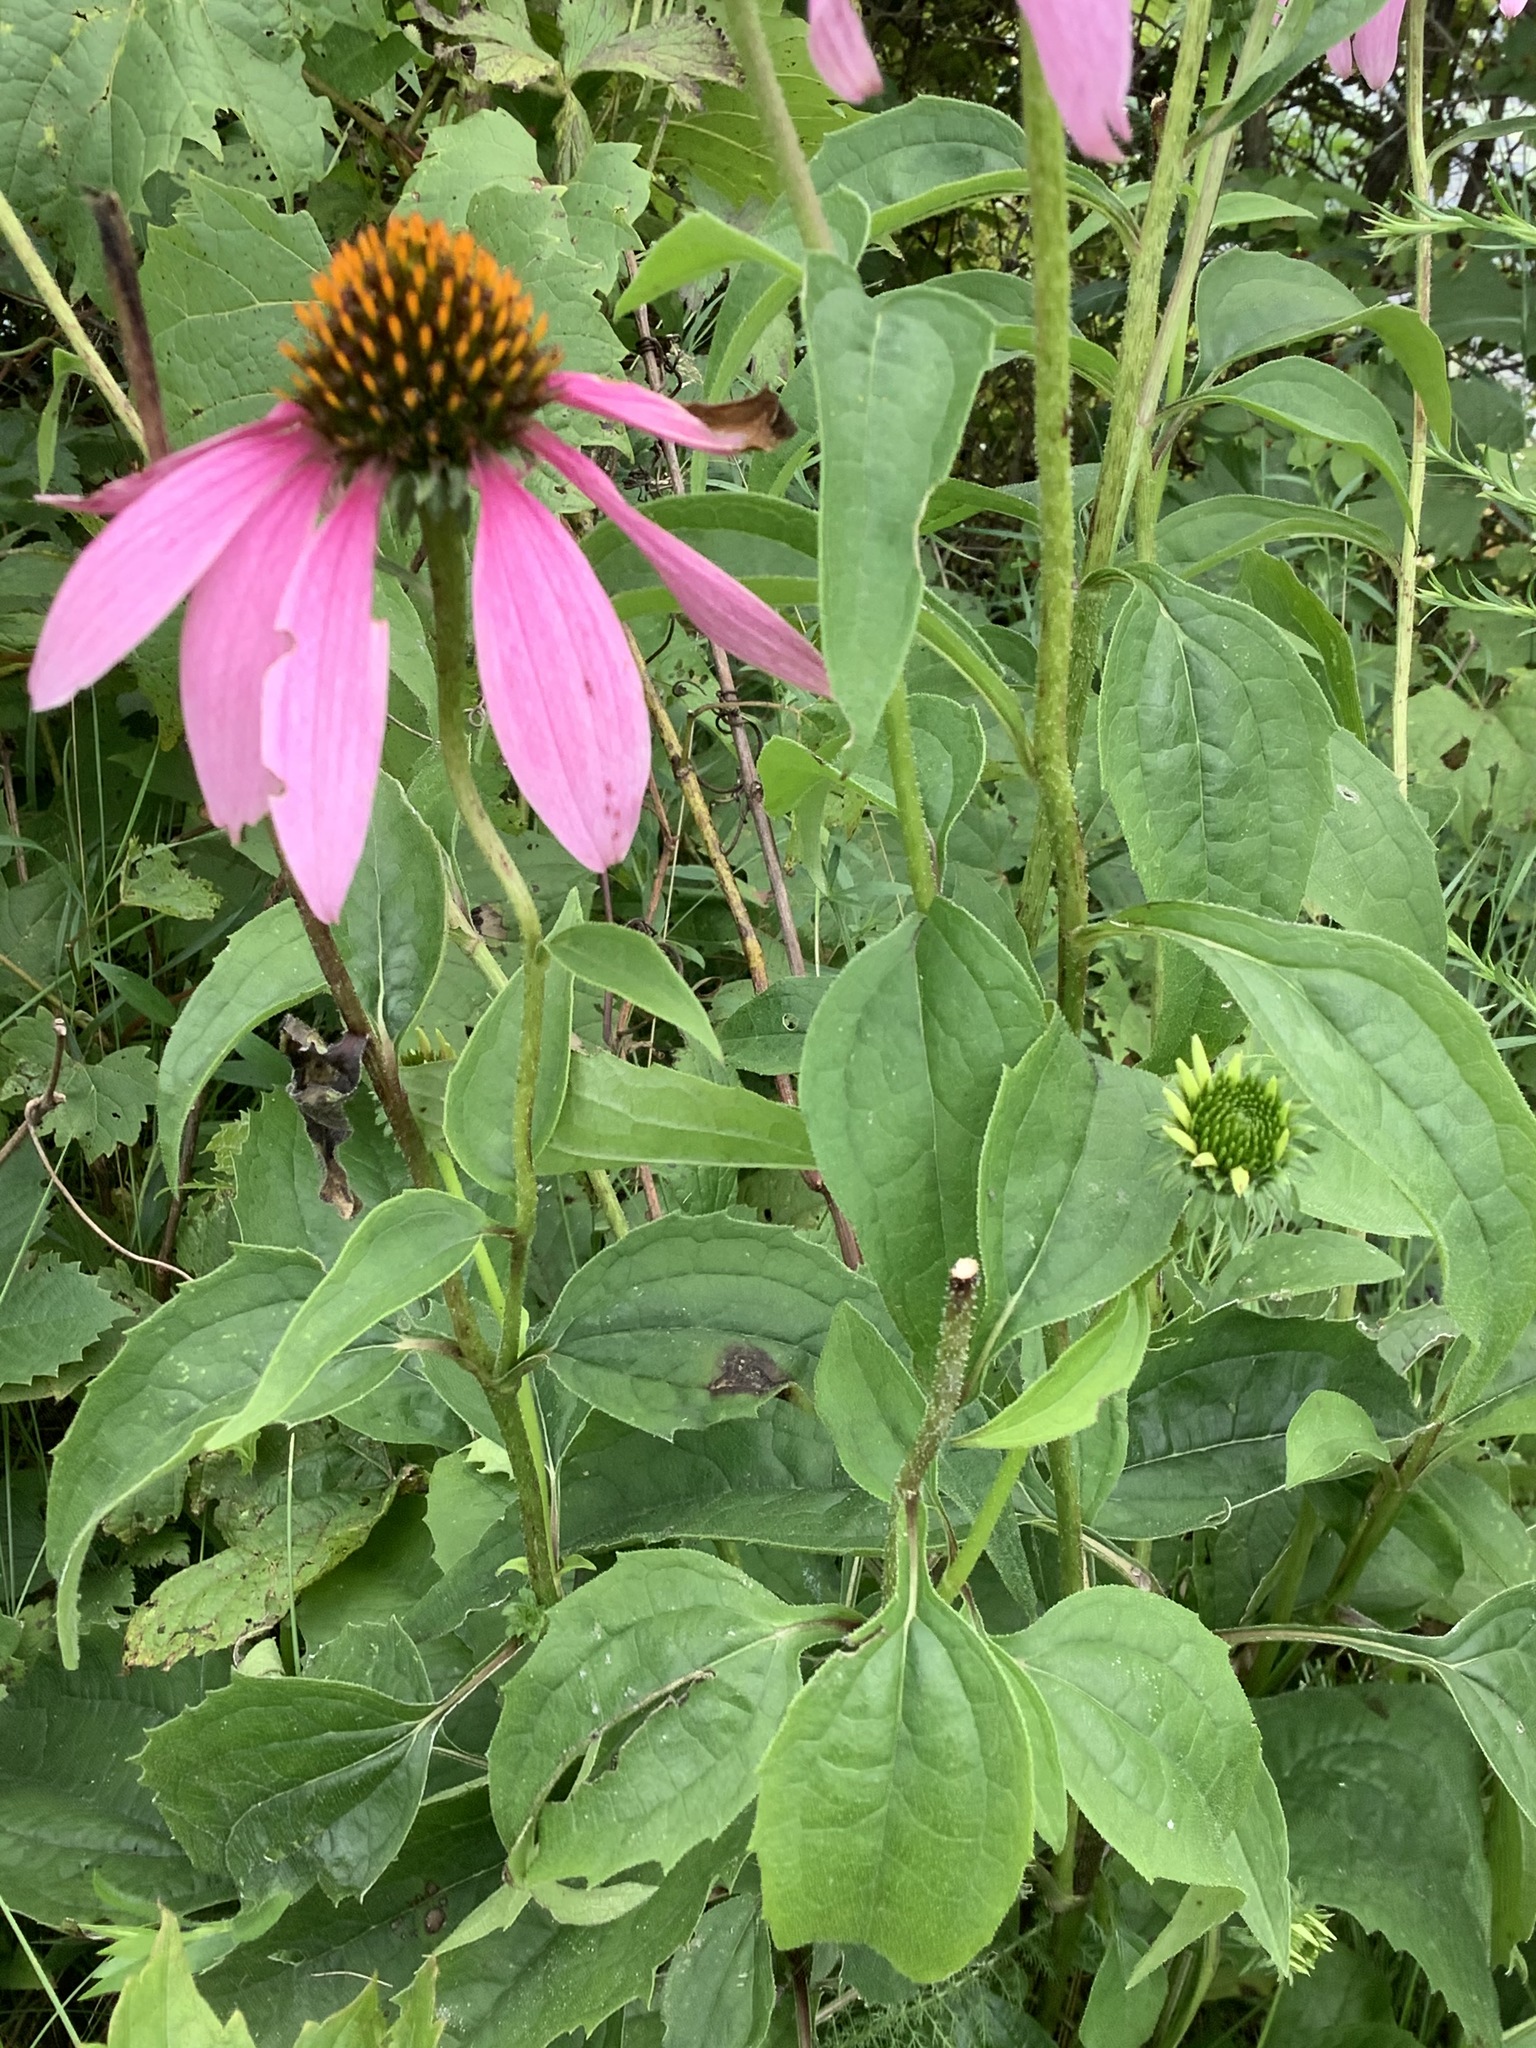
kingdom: Plantae
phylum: Tracheophyta
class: Magnoliopsida
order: Asterales
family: Asteraceae
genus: Echinacea
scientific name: Echinacea purpurea
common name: Broad-leaved purple coneflower
